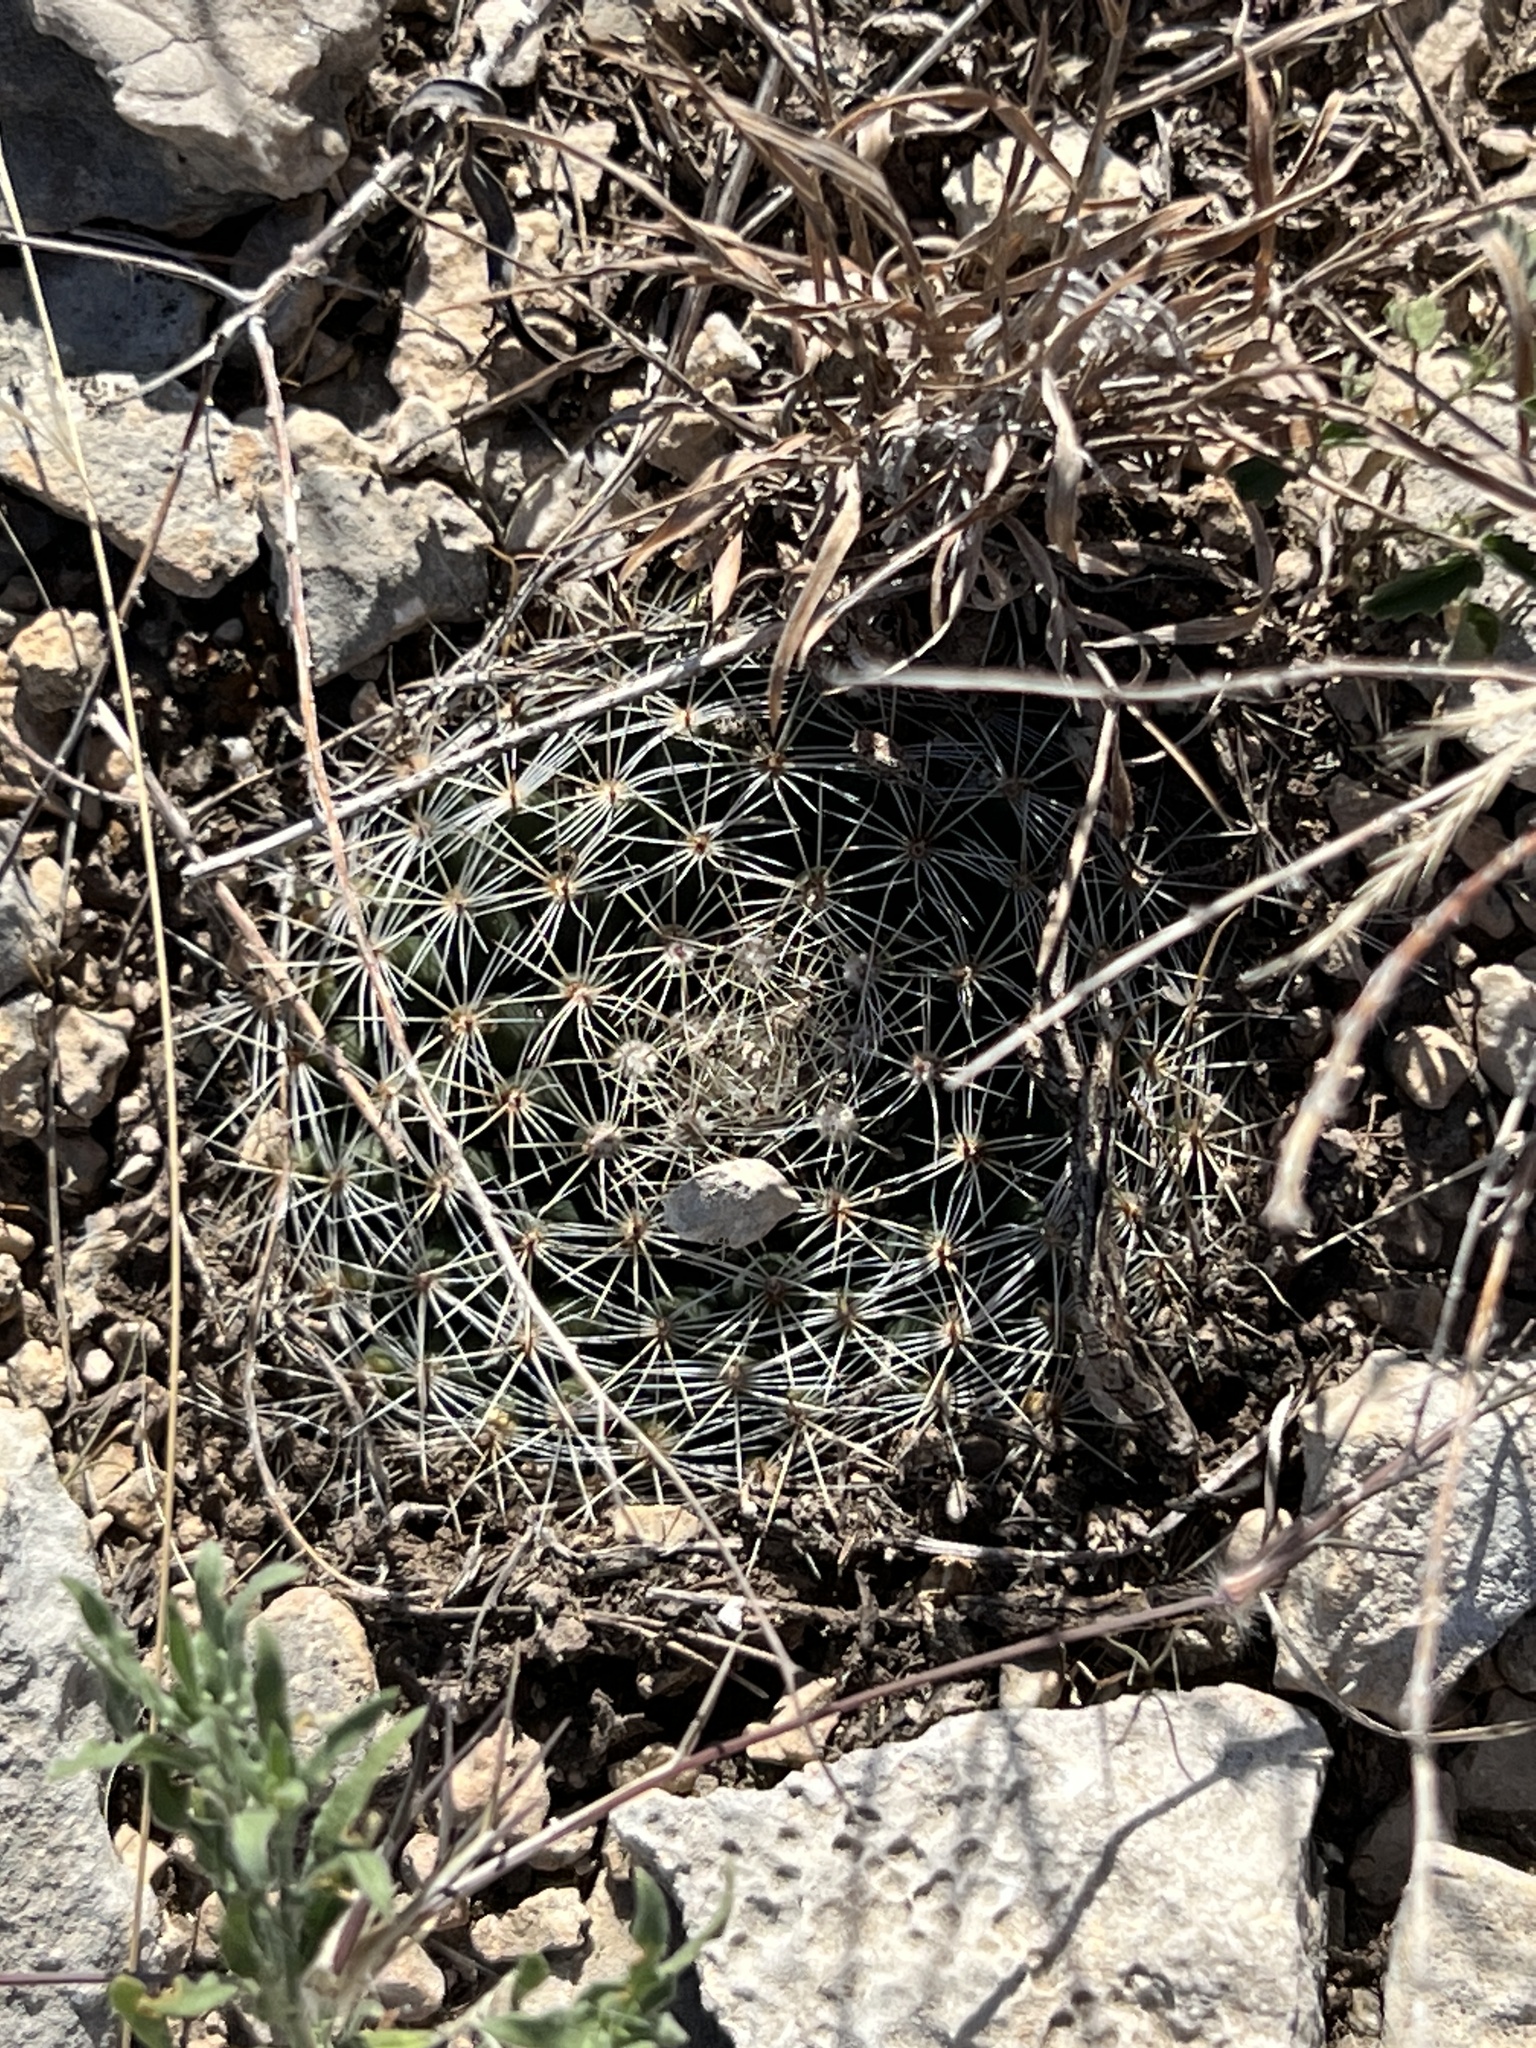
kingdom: Plantae
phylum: Tracheophyta
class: Magnoliopsida
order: Caryophyllales
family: Cactaceae
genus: Mammillaria
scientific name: Mammillaria heyderi
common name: Little nipple cactus
